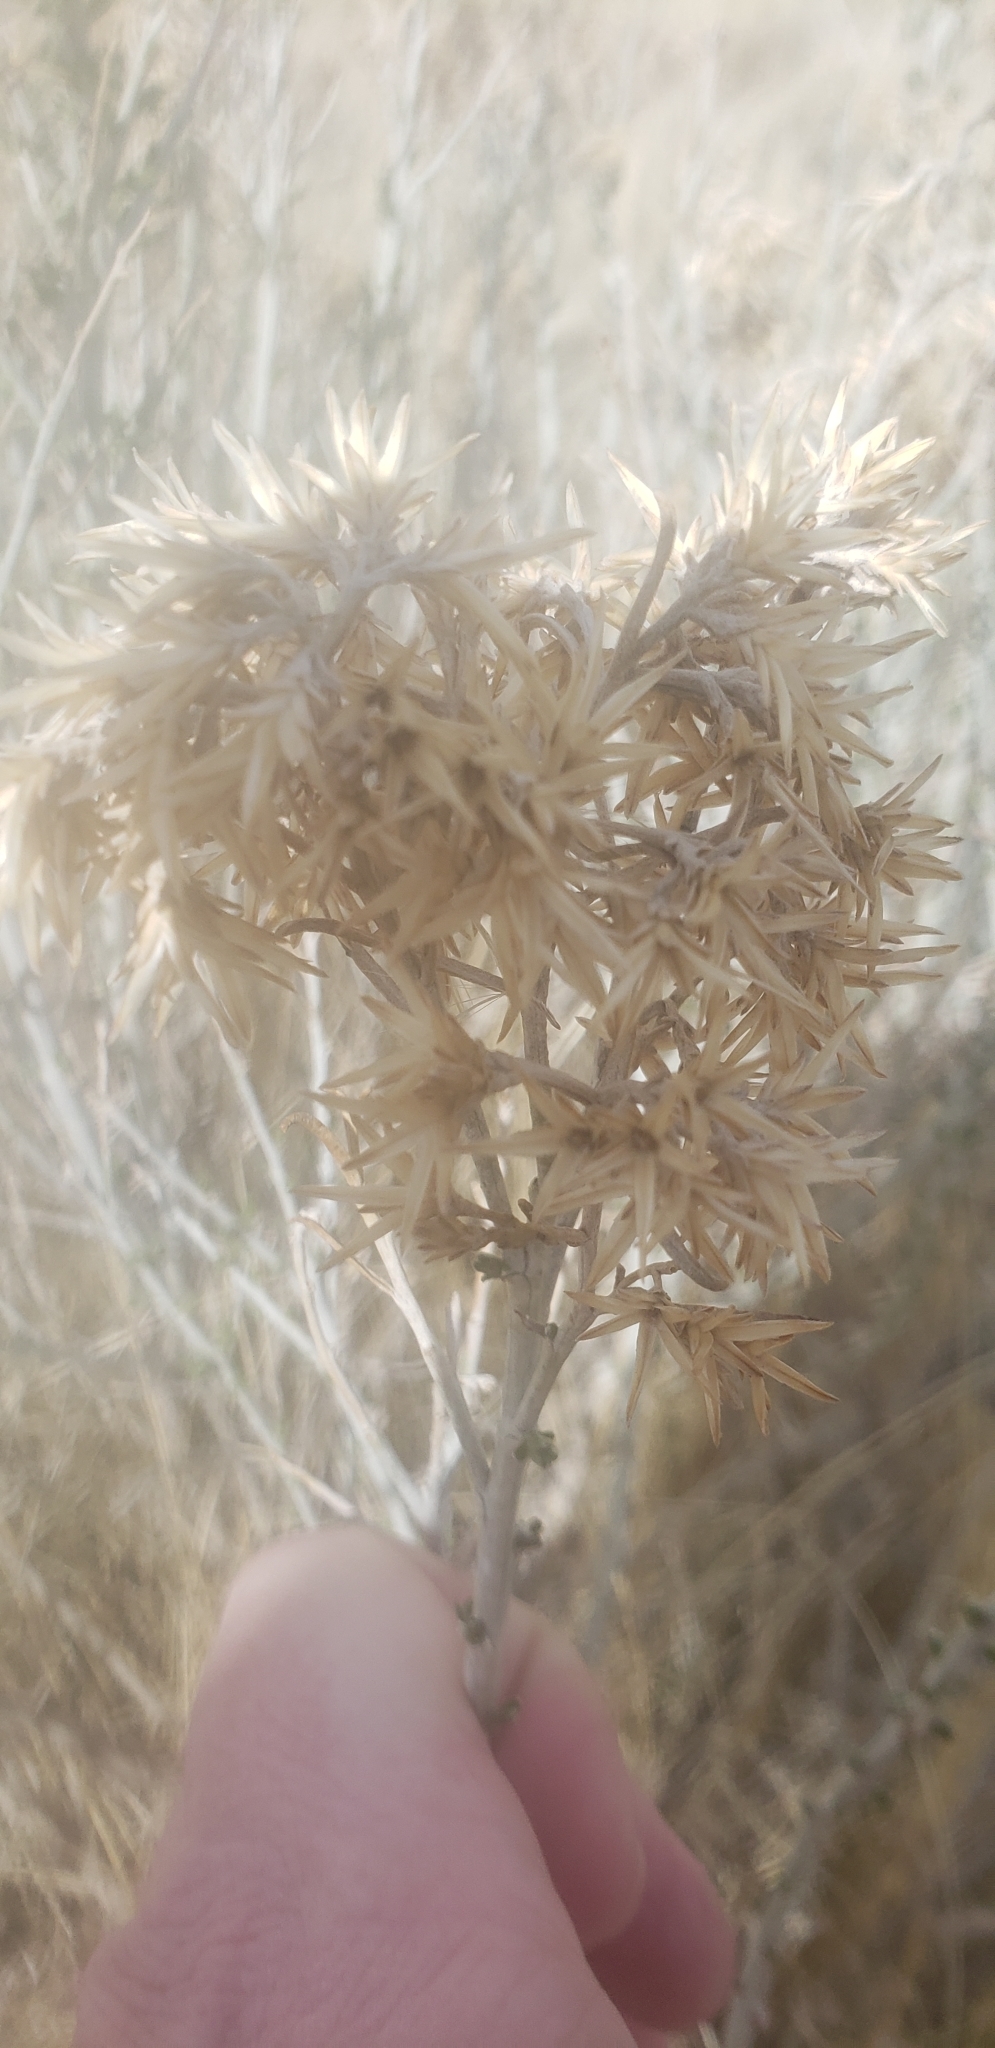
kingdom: Plantae
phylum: Tracheophyta
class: Magnoliopsida
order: Asterales
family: Asteraceae
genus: Ericameria
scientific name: Ericameria nauseosa
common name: Rubber rabbitbrush
